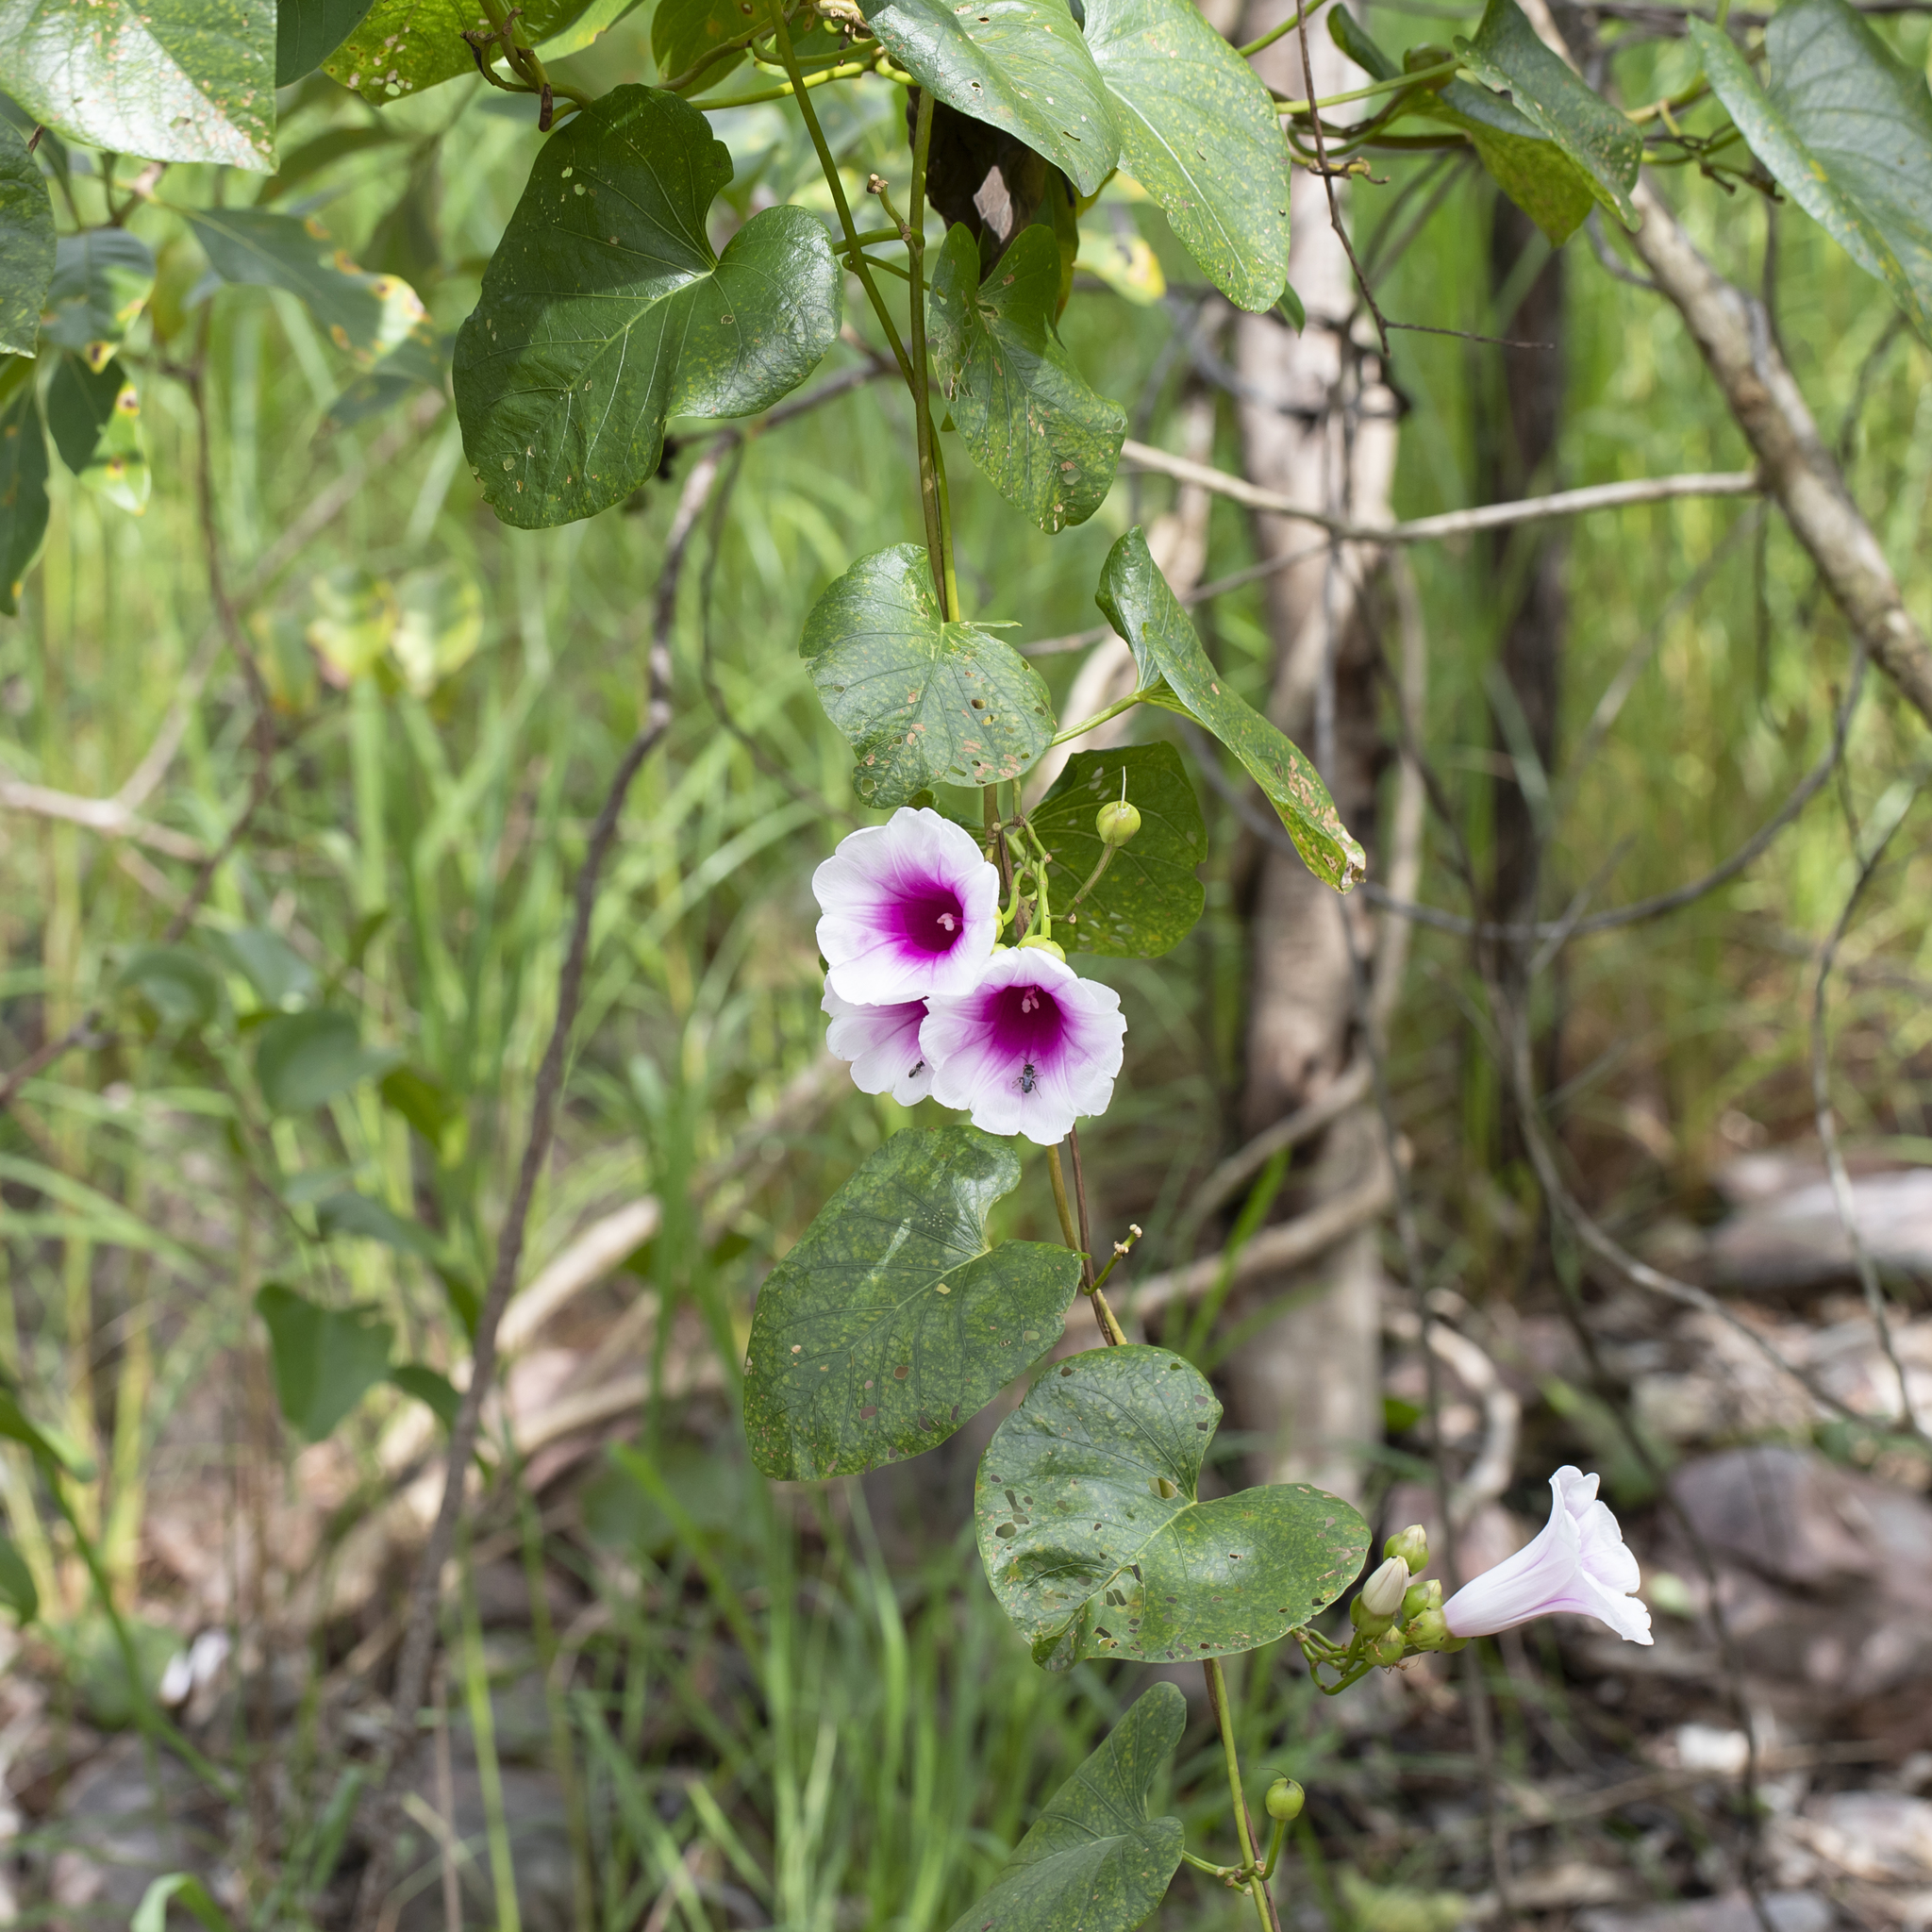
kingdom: Plantae
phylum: Tracheophyta
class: Magnoliopsida
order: Solanales
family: Convolvulaceae
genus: Ipomoea
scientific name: Ipomoea abrupta
